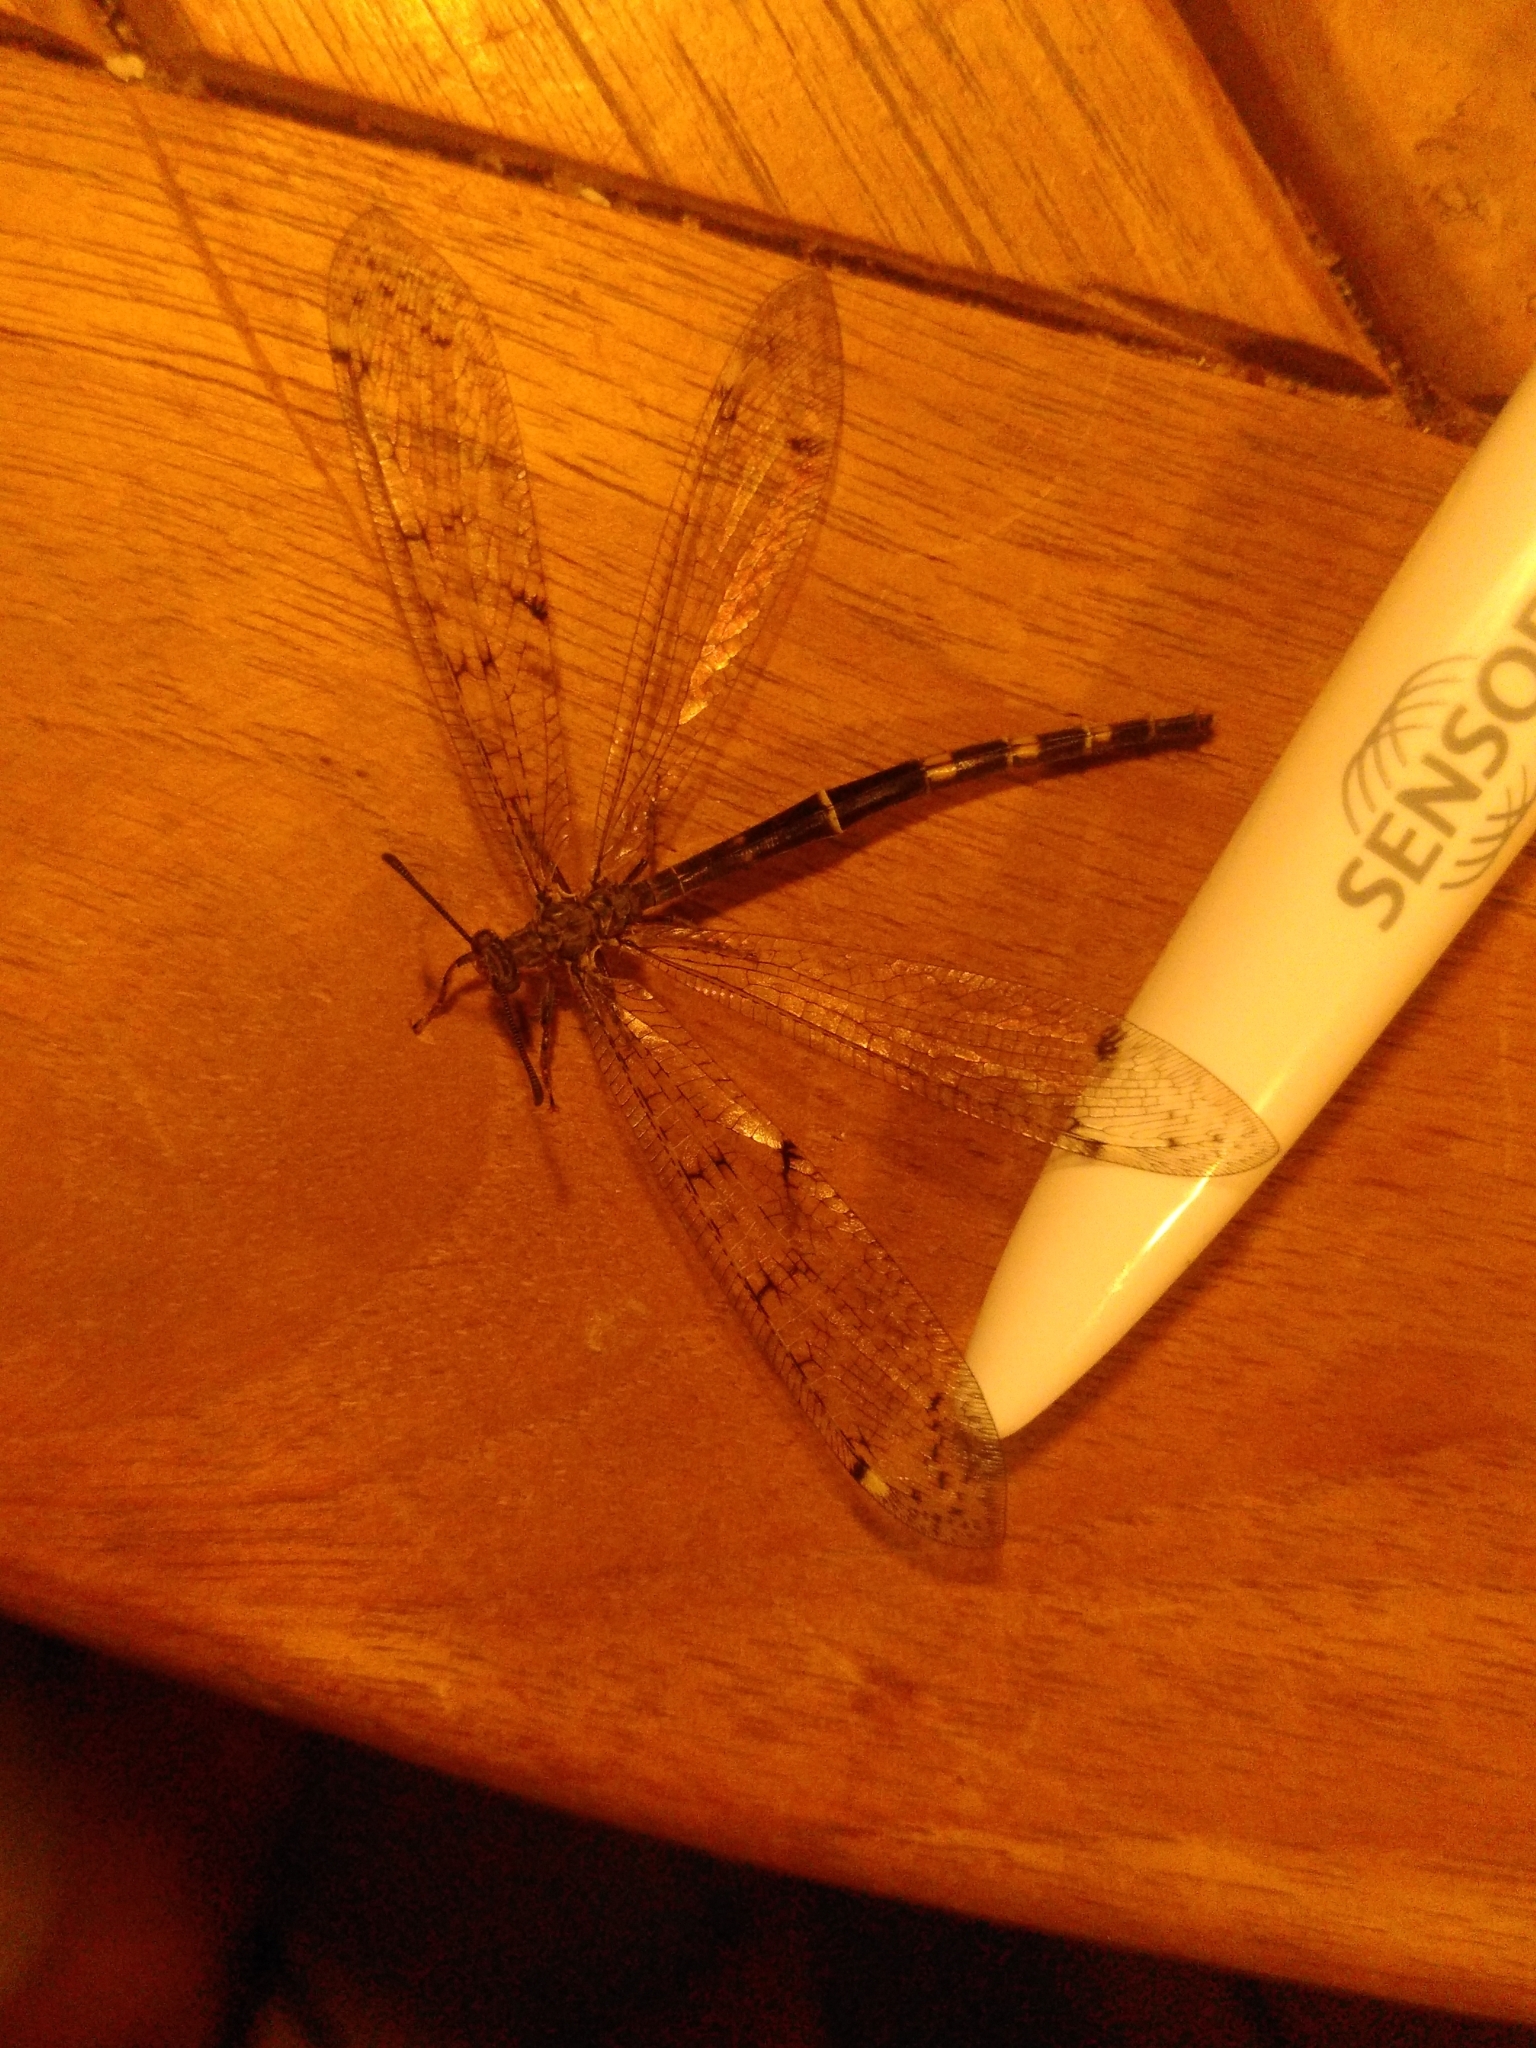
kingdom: Animalia
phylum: Arthropoda
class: Insecta
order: Neuroptera
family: Myrmeleontidae
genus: Distoleon
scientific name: Distoleon tetragrammicus
